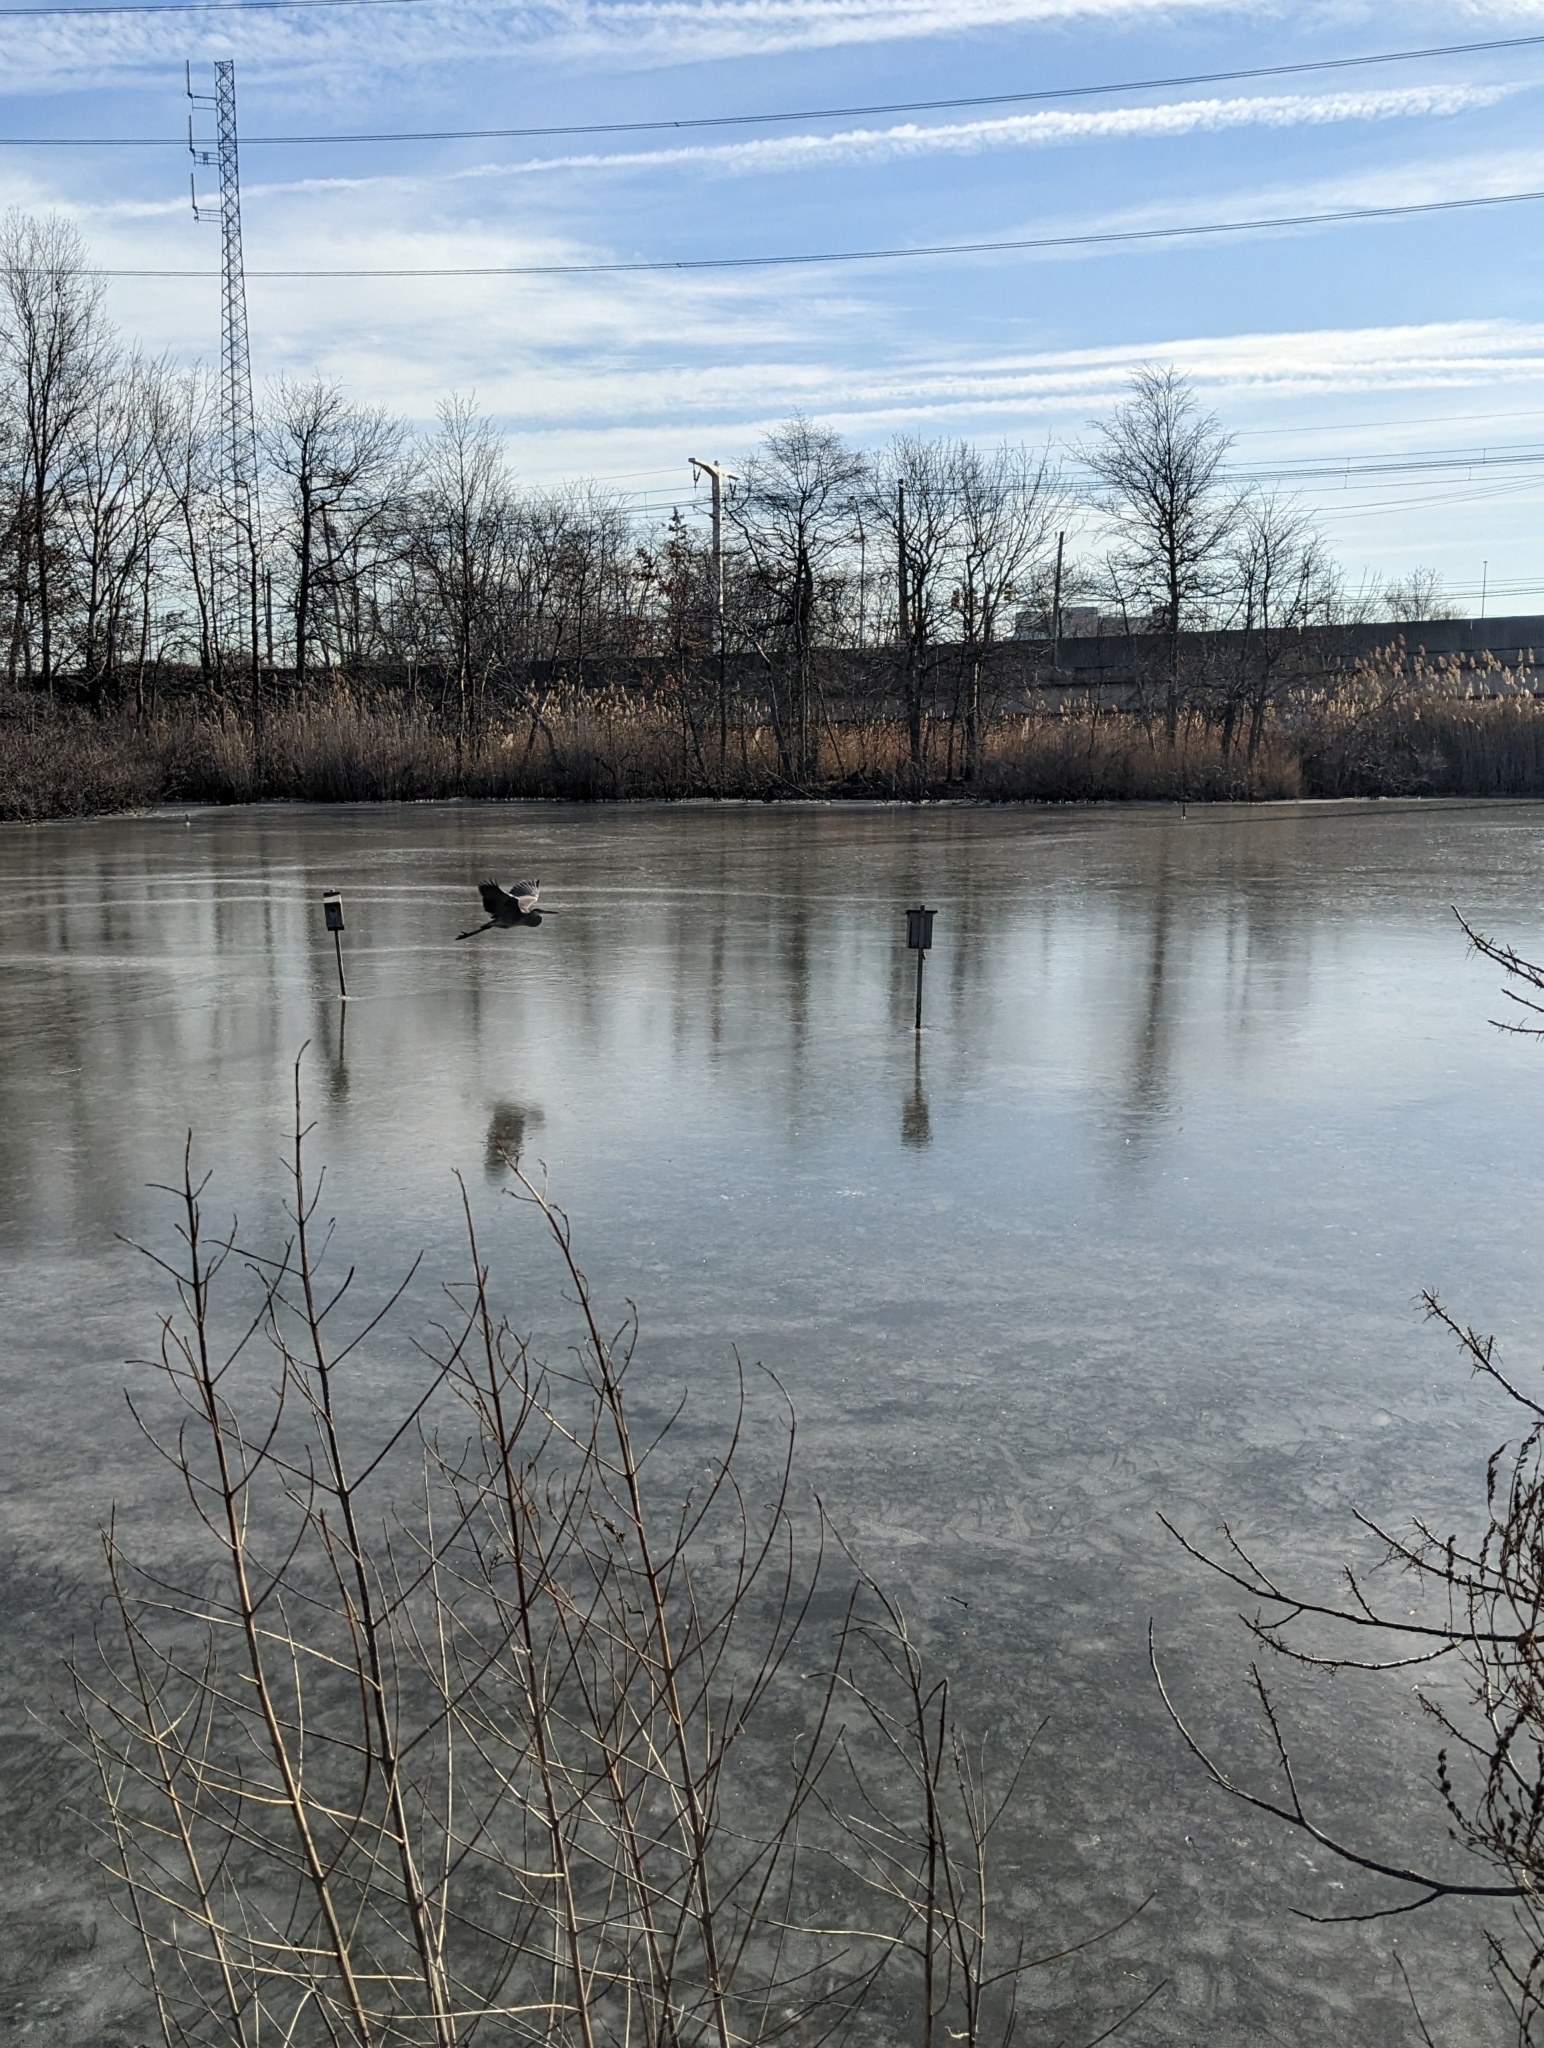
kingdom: Animalia
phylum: Chordata
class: Aves
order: Pelecaniformes
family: Ardeidae
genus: Ardea
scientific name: Ardea herodias
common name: Great blue heron
